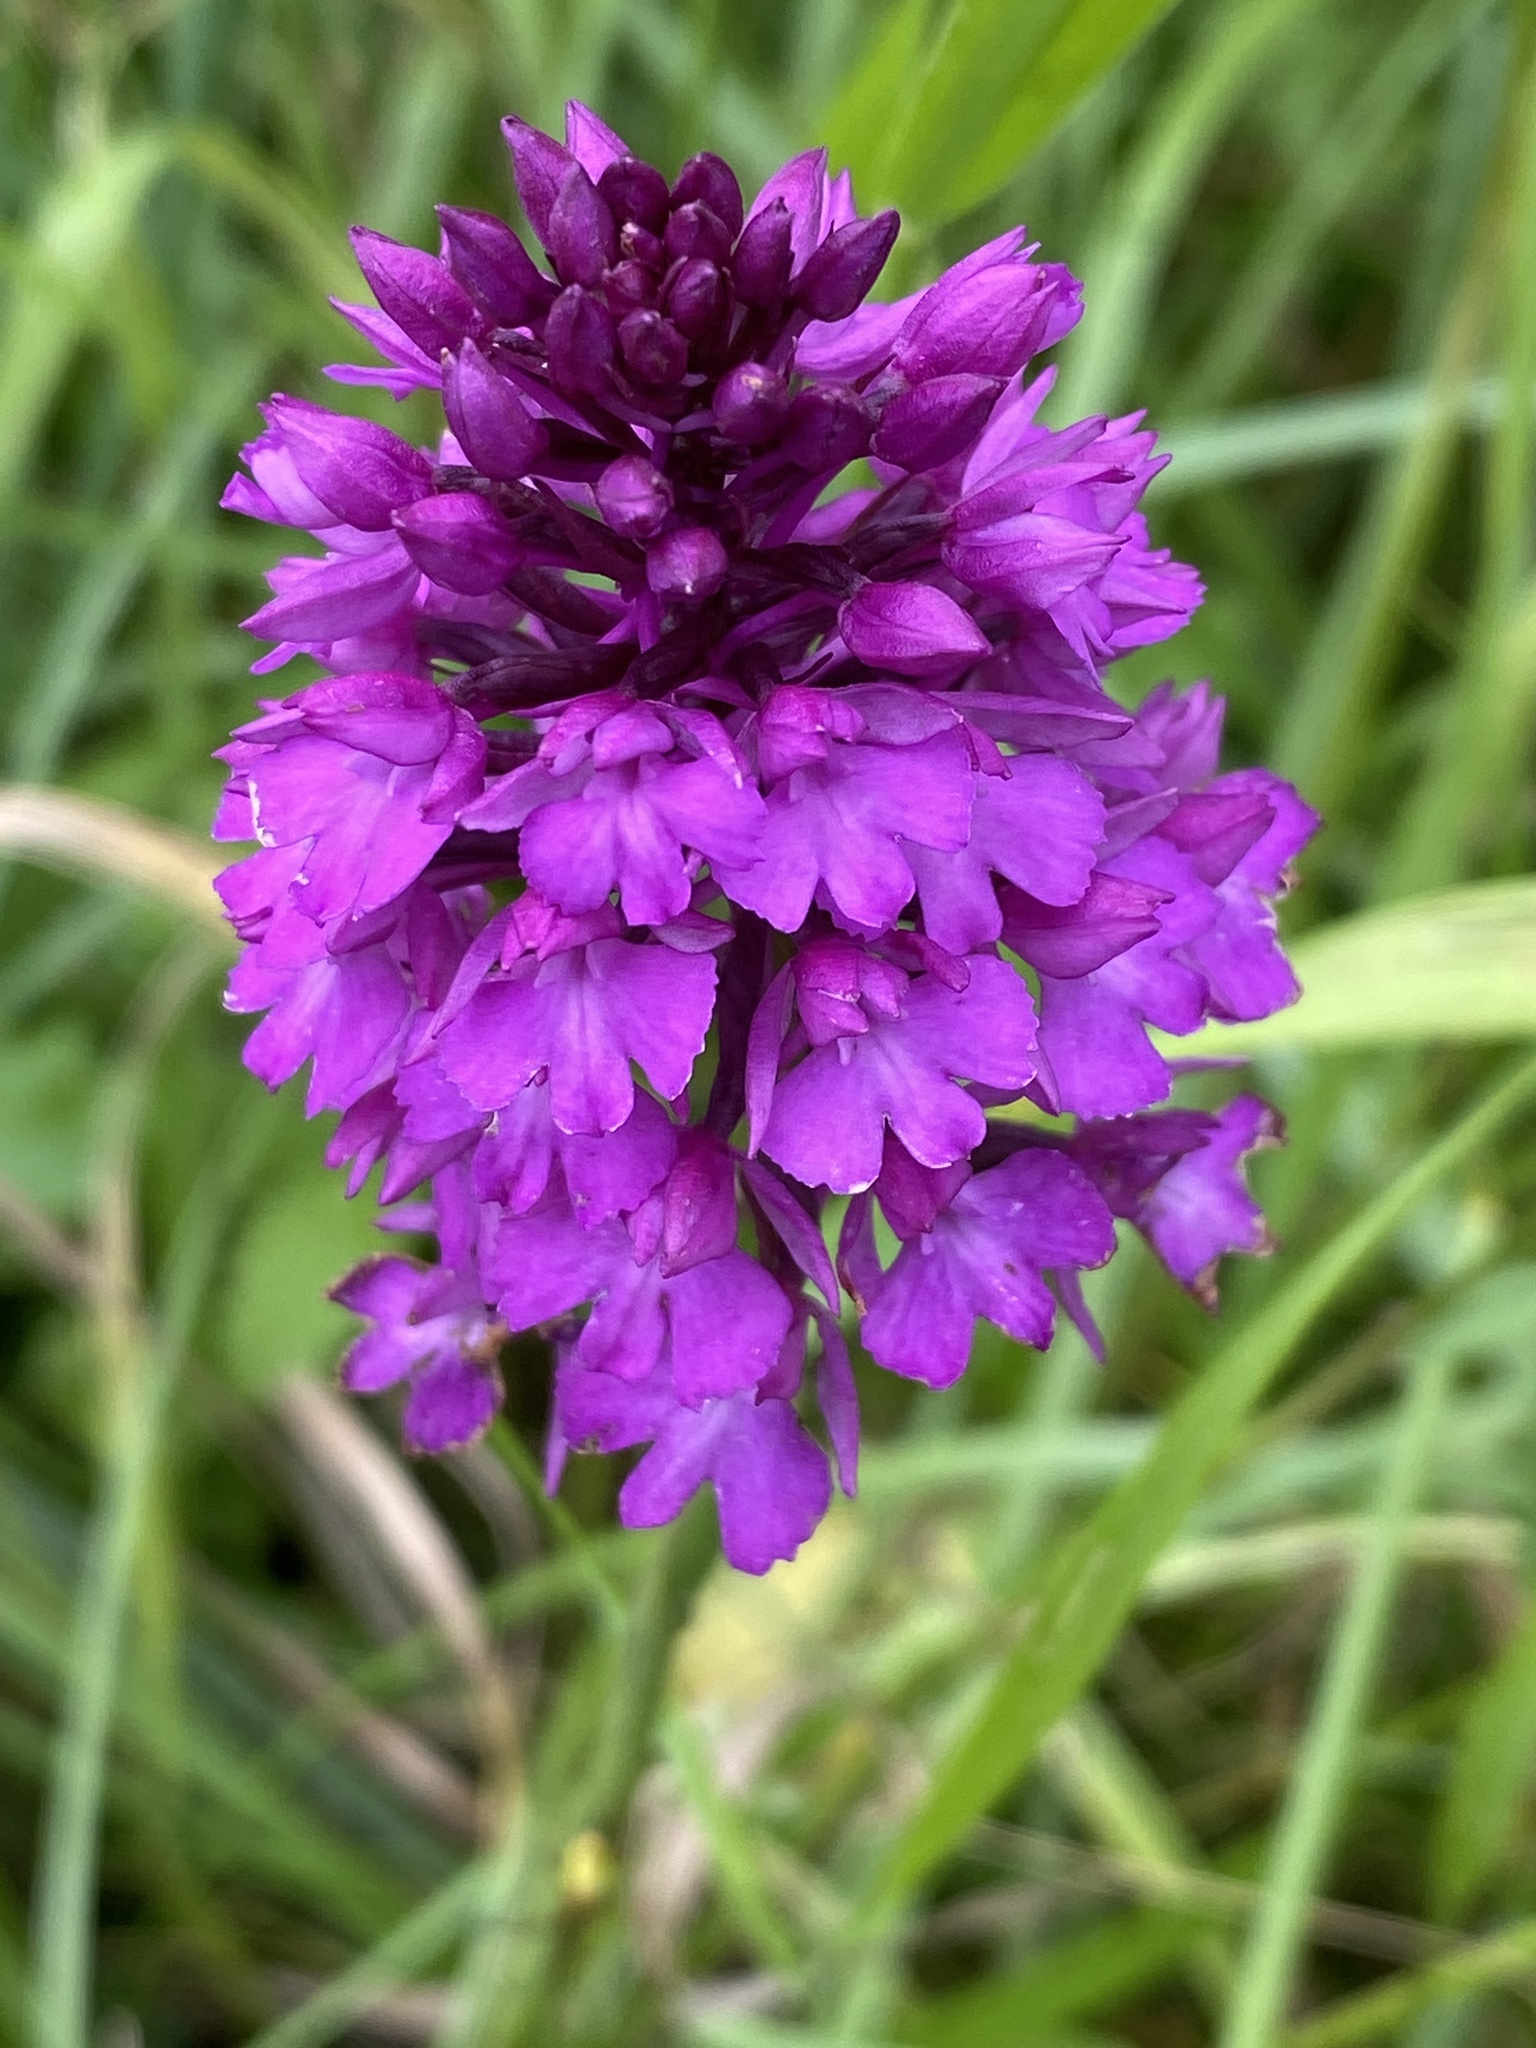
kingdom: Plantae
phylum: Tracheophyta
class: Liliopsida
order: Asparagales
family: Orchidaceae
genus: Anacamptis
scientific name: Anacamptis pyramidalis
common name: Pyramidal orchid
